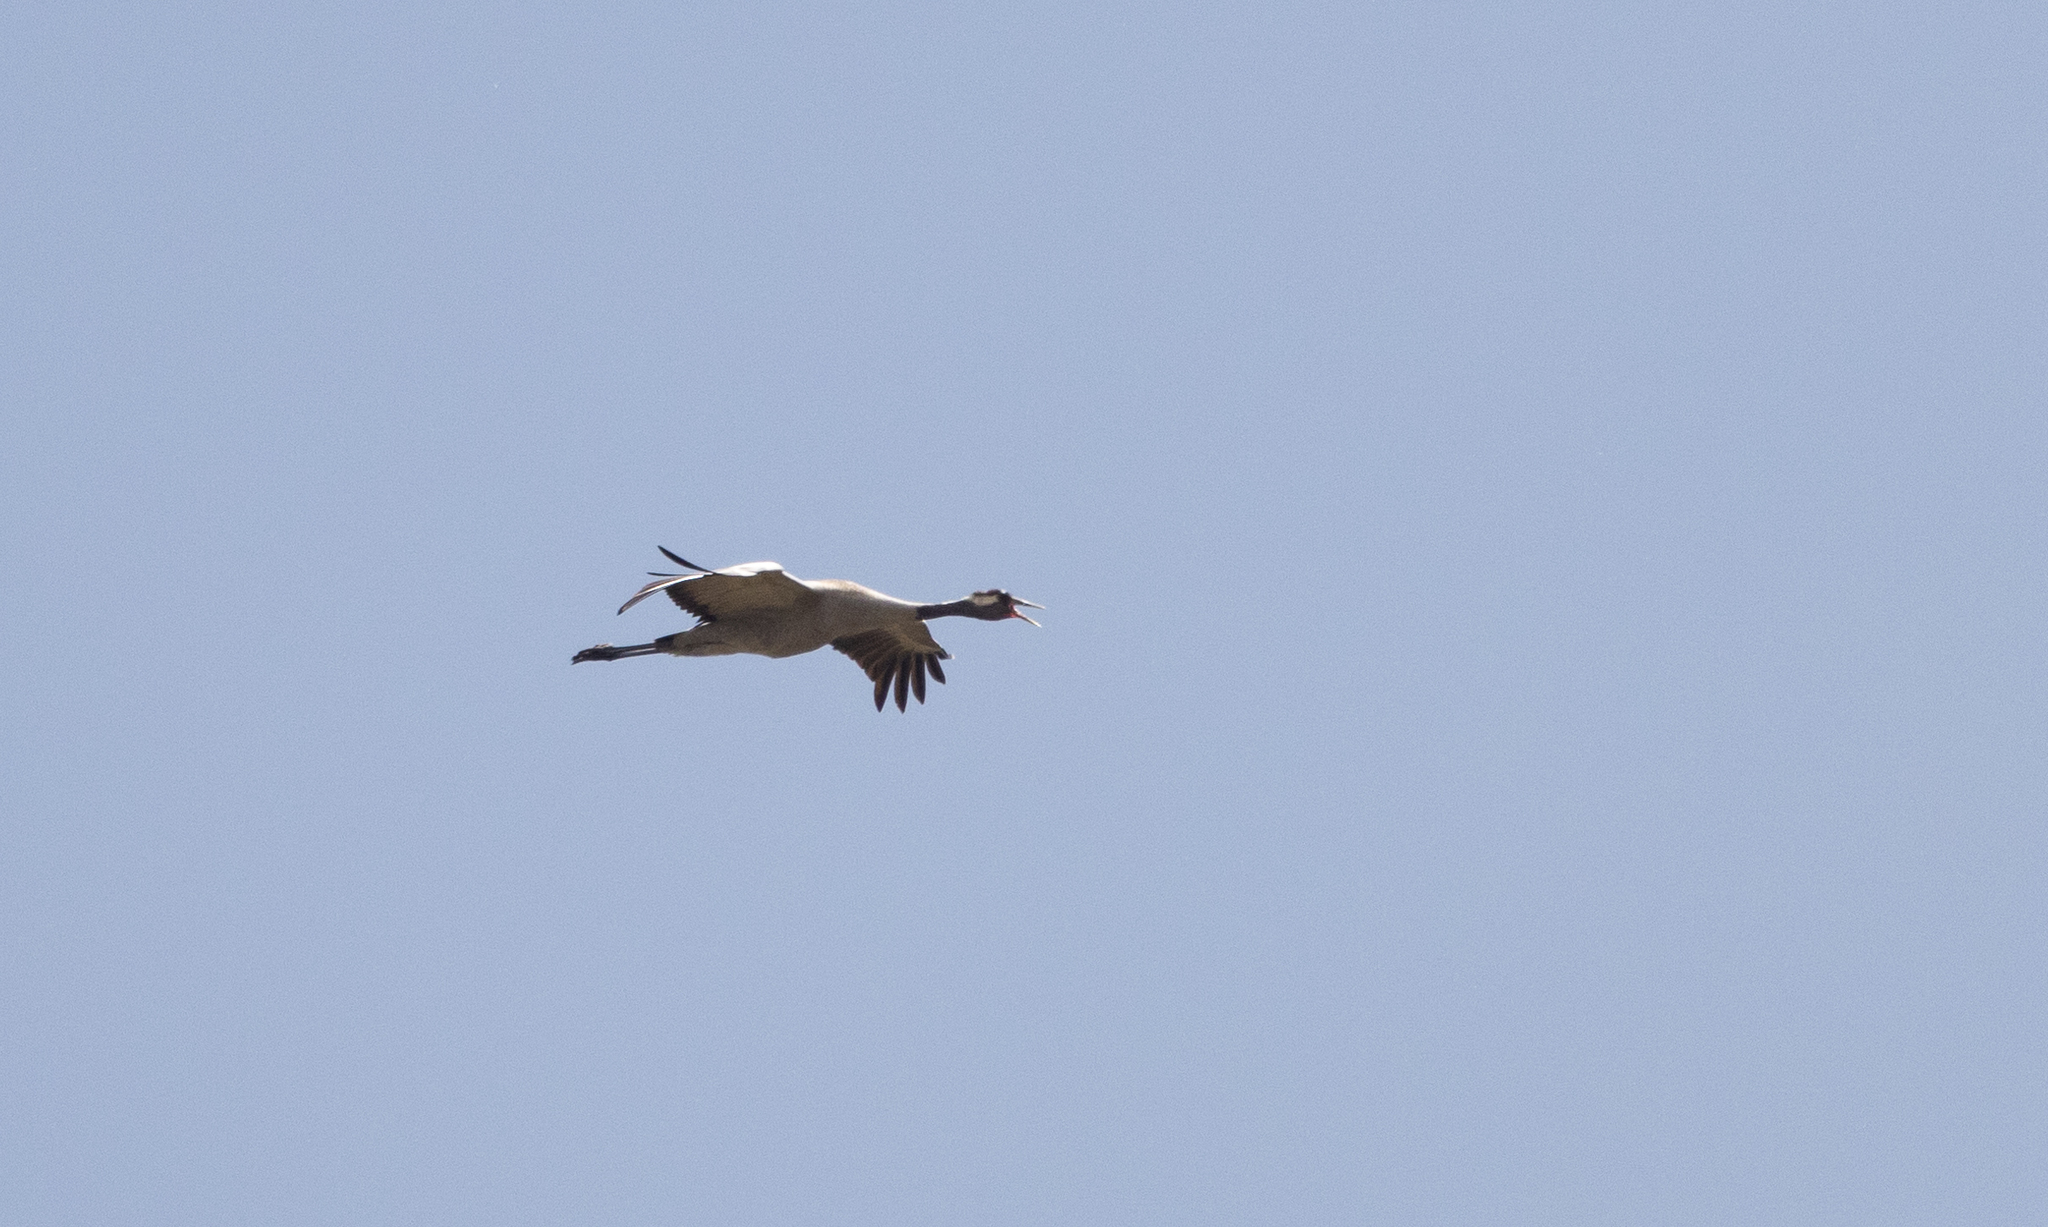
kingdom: Animalia
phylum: Chordata
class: Aves
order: Gruiformes
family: Gruidae
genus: Grus
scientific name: Grus grus
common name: Common crane
